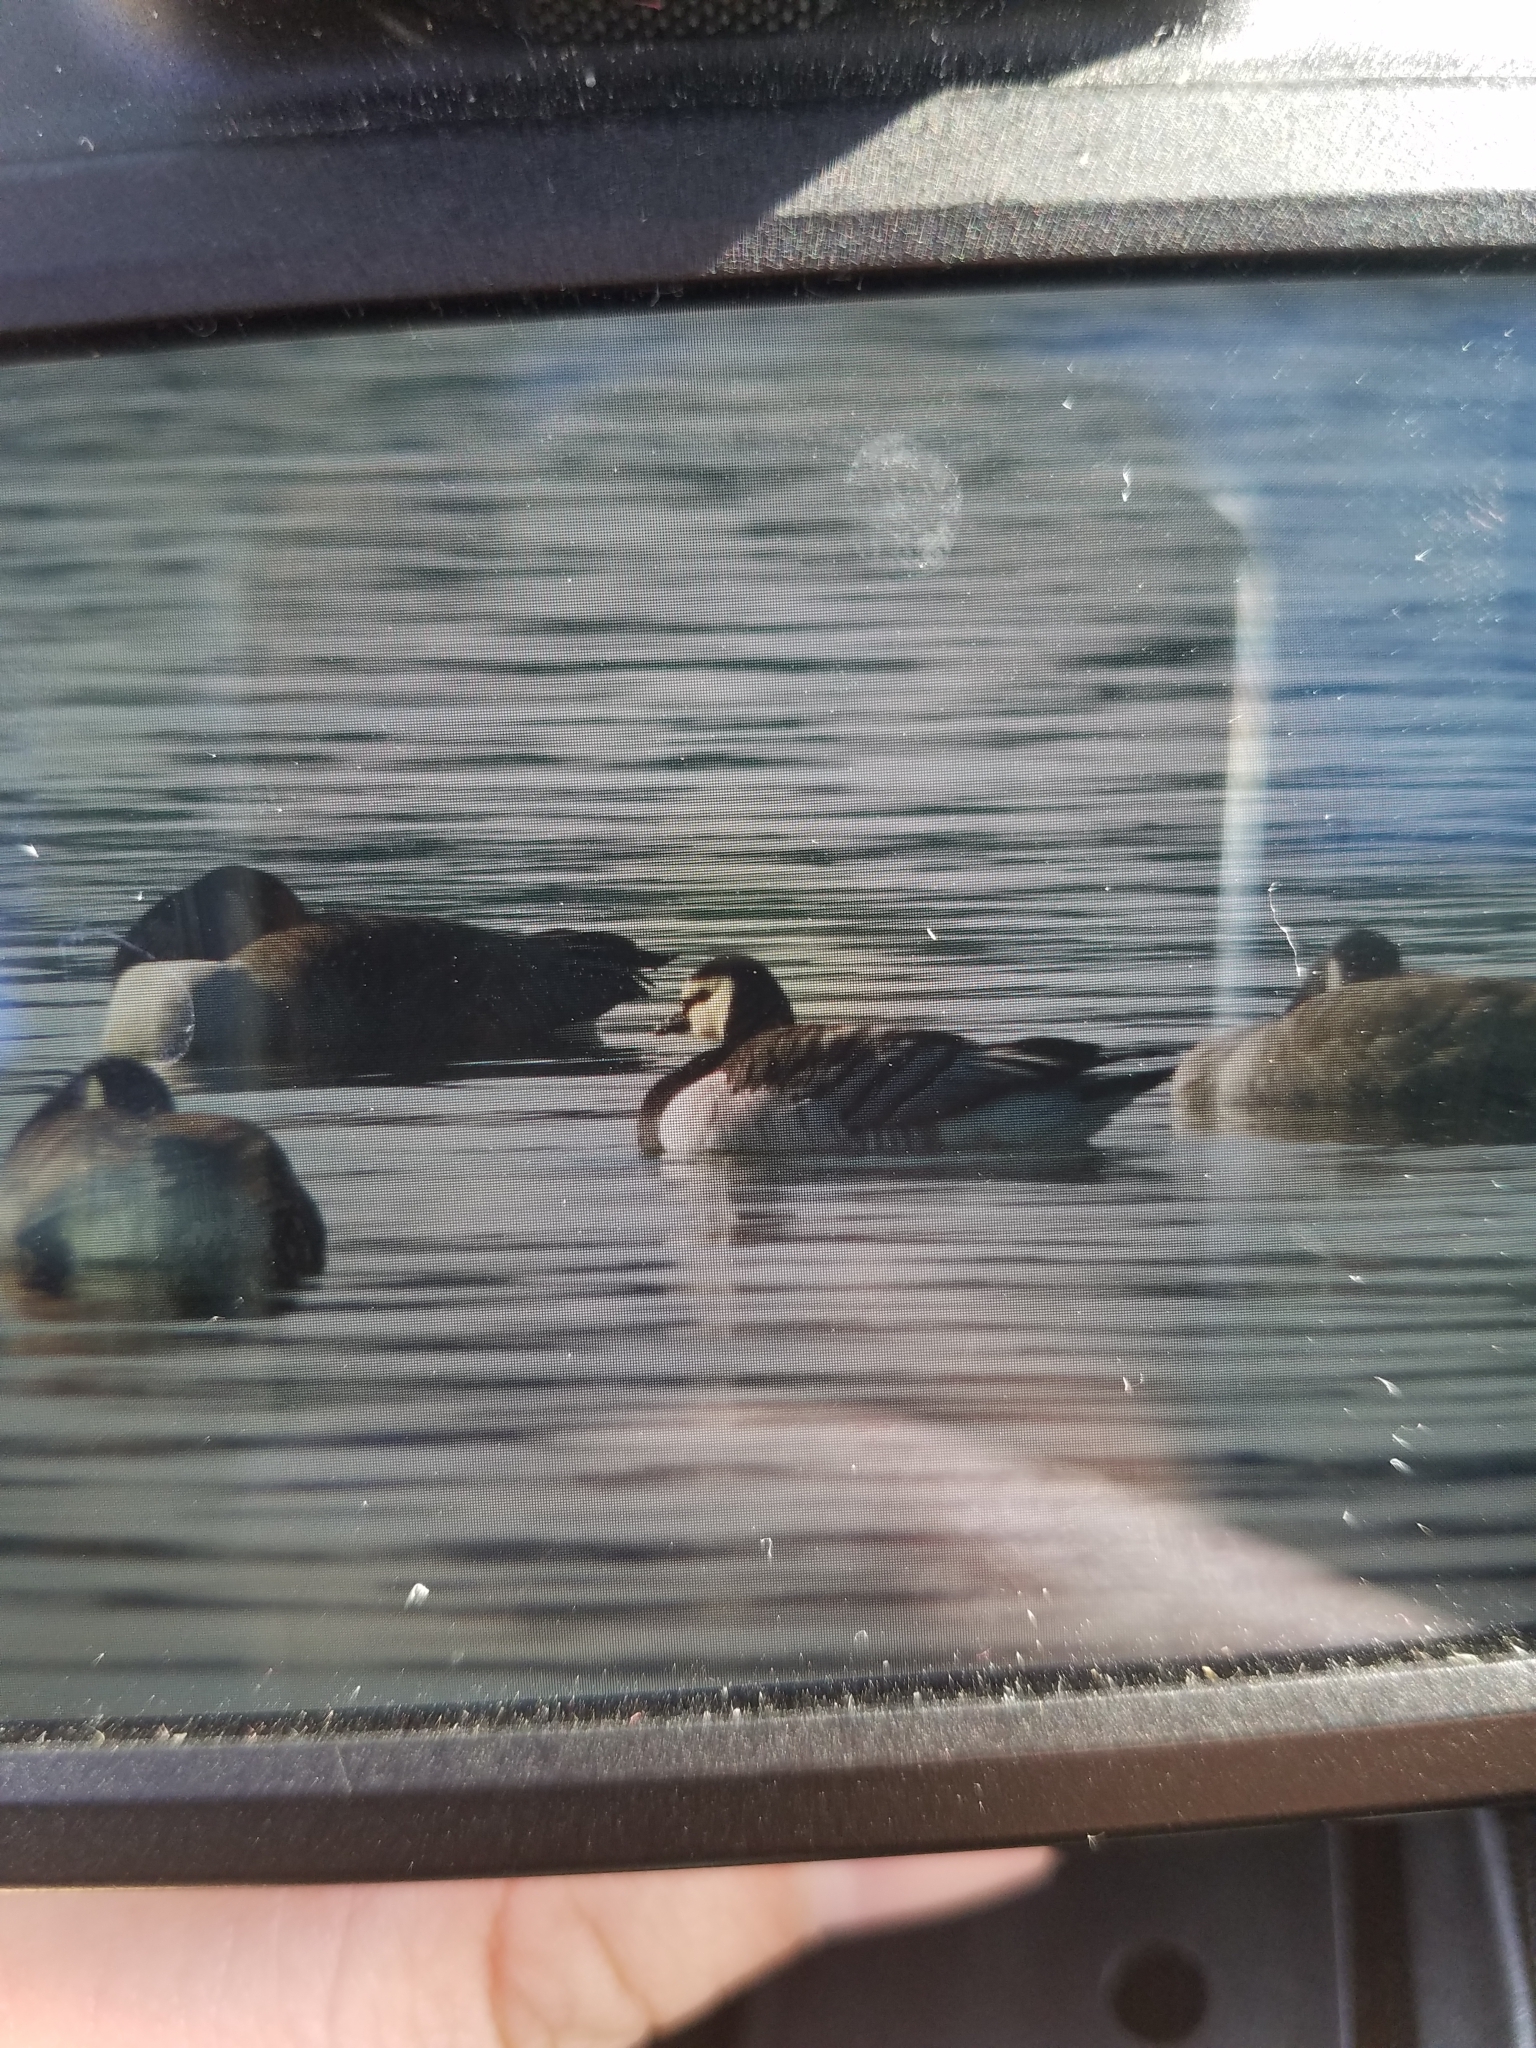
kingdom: Animalia
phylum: Chordata
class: Aves
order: Anseriformes
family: Anatidae
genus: Branta
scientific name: Branta leucopsis
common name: Barnacle goose
